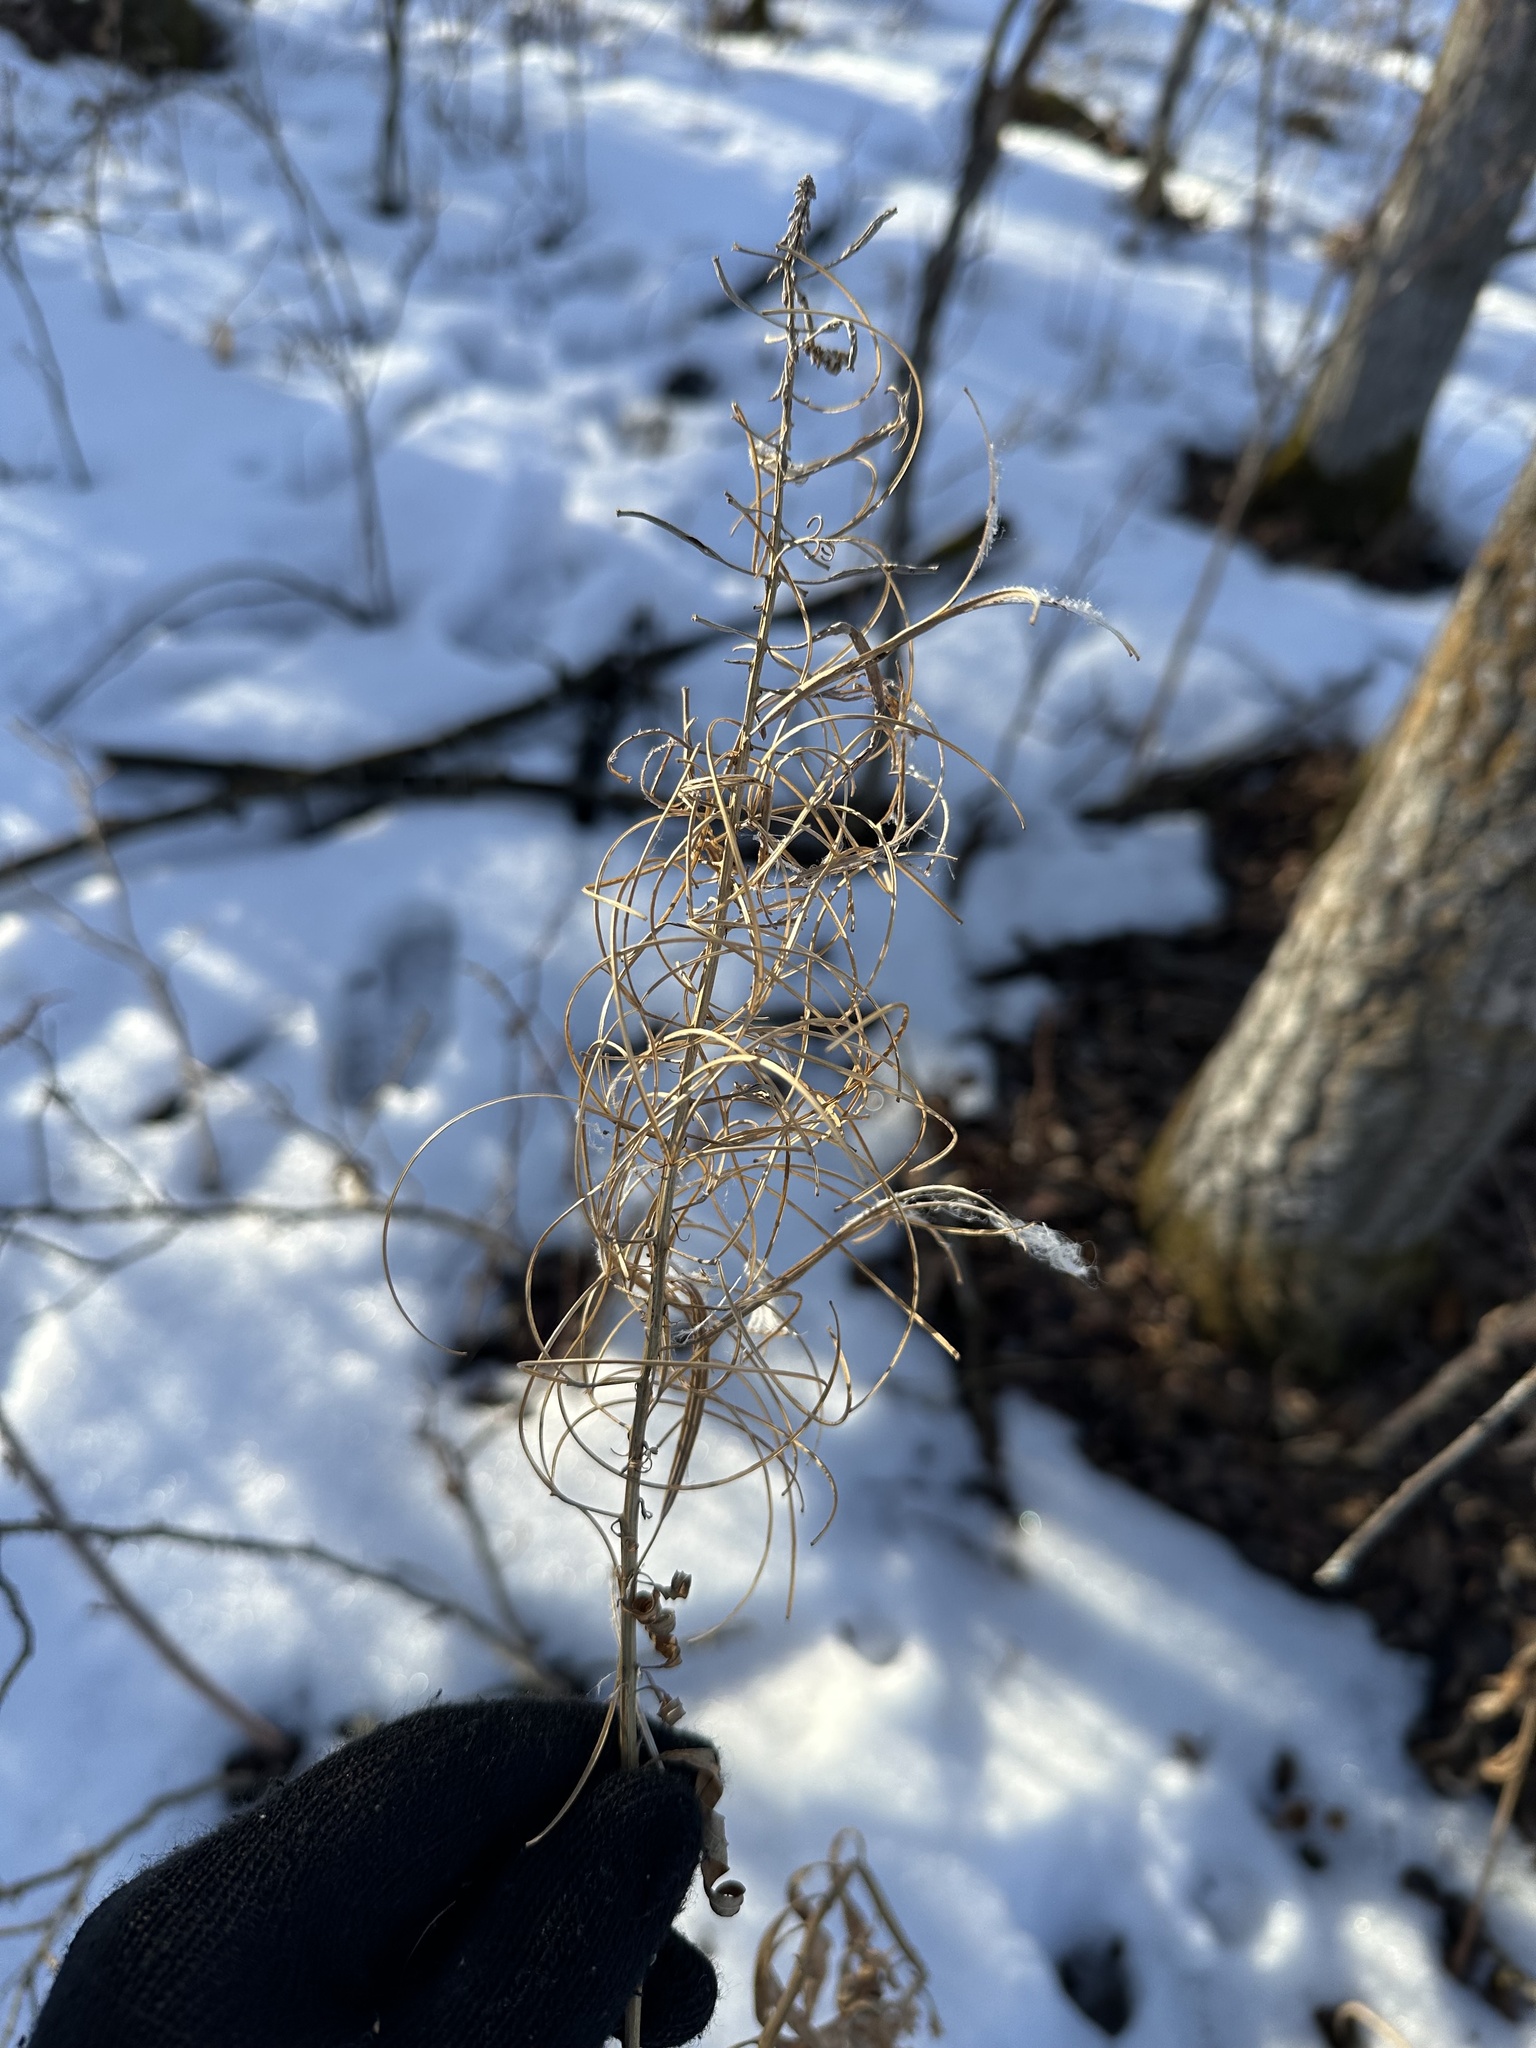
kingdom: Plantae
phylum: Tracheophyta
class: Magnoliopsida
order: Myrtales
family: Onagraceae
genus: Chamaenerion
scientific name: Chamaenerion angustifolium
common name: Fireweed
